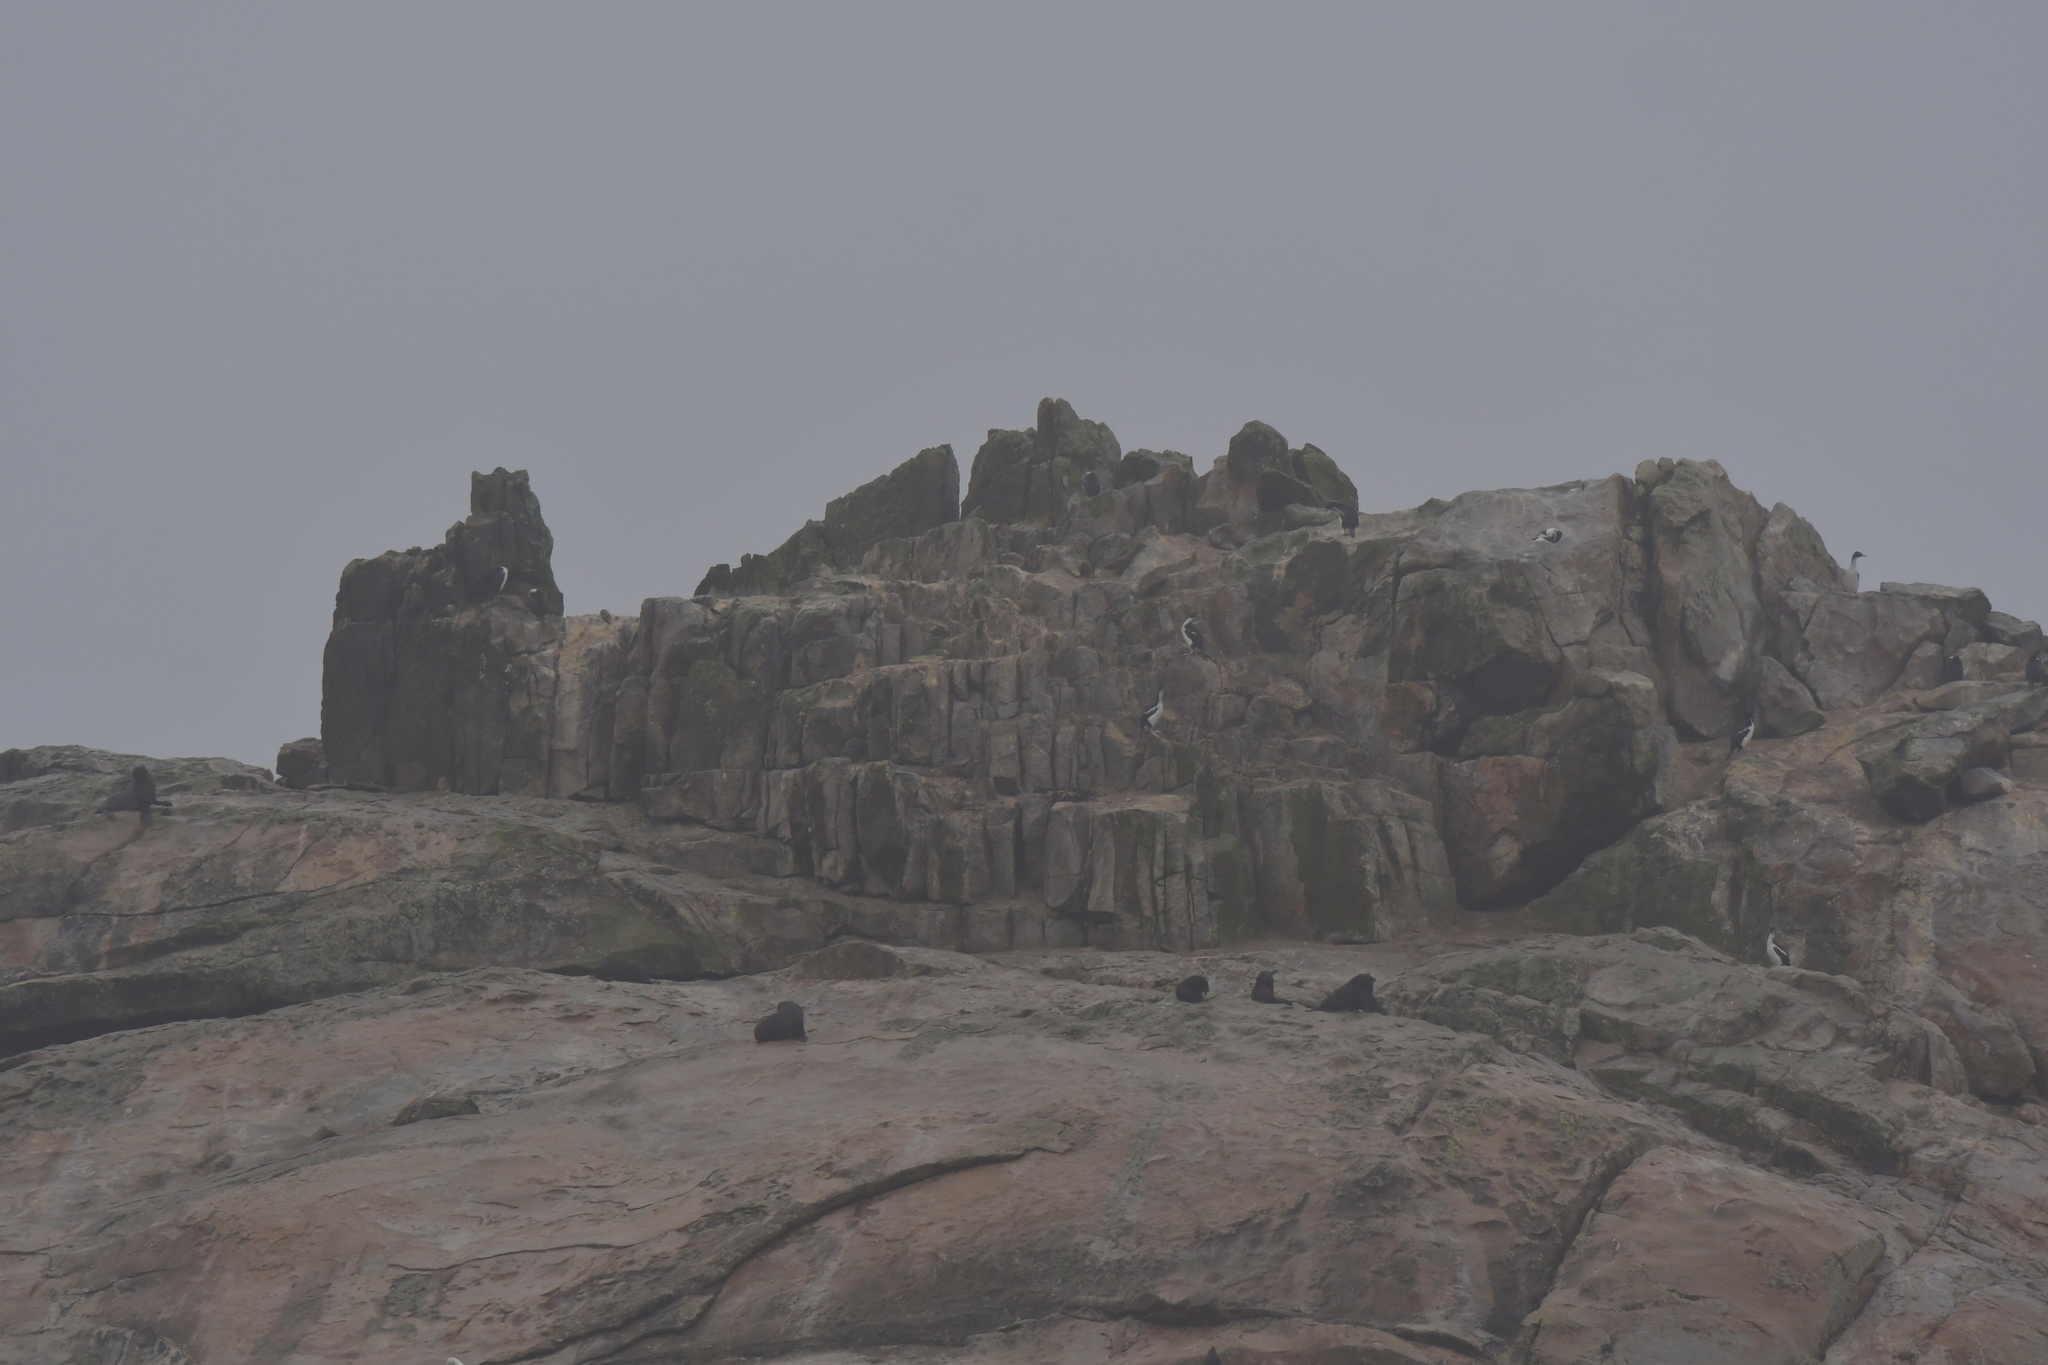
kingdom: Animalia
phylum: Chordata
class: Aves
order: Suliformes
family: Phalacrocoracidae
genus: Leucocarbo
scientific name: Leucocarbo ranfurlyi
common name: Bounty shag
